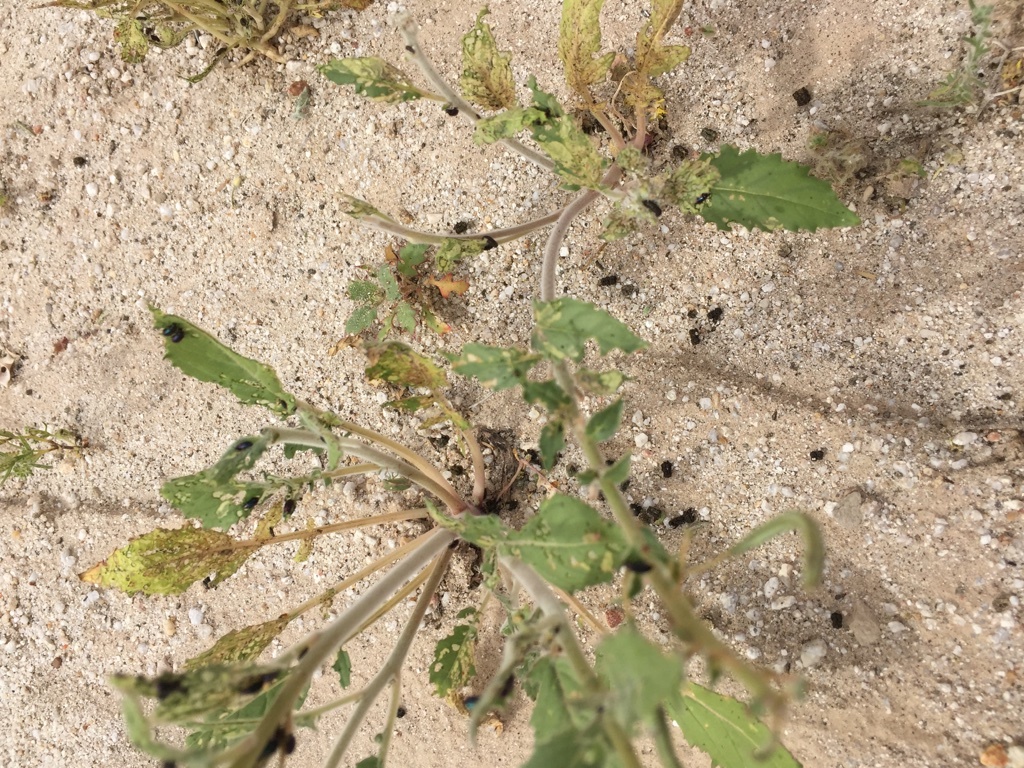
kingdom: Animalia
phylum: Arthropoda
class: Insecta
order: Lepidoptera
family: Sphingidae
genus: Hyles
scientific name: Hyles lineata
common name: White-lined sphinx
